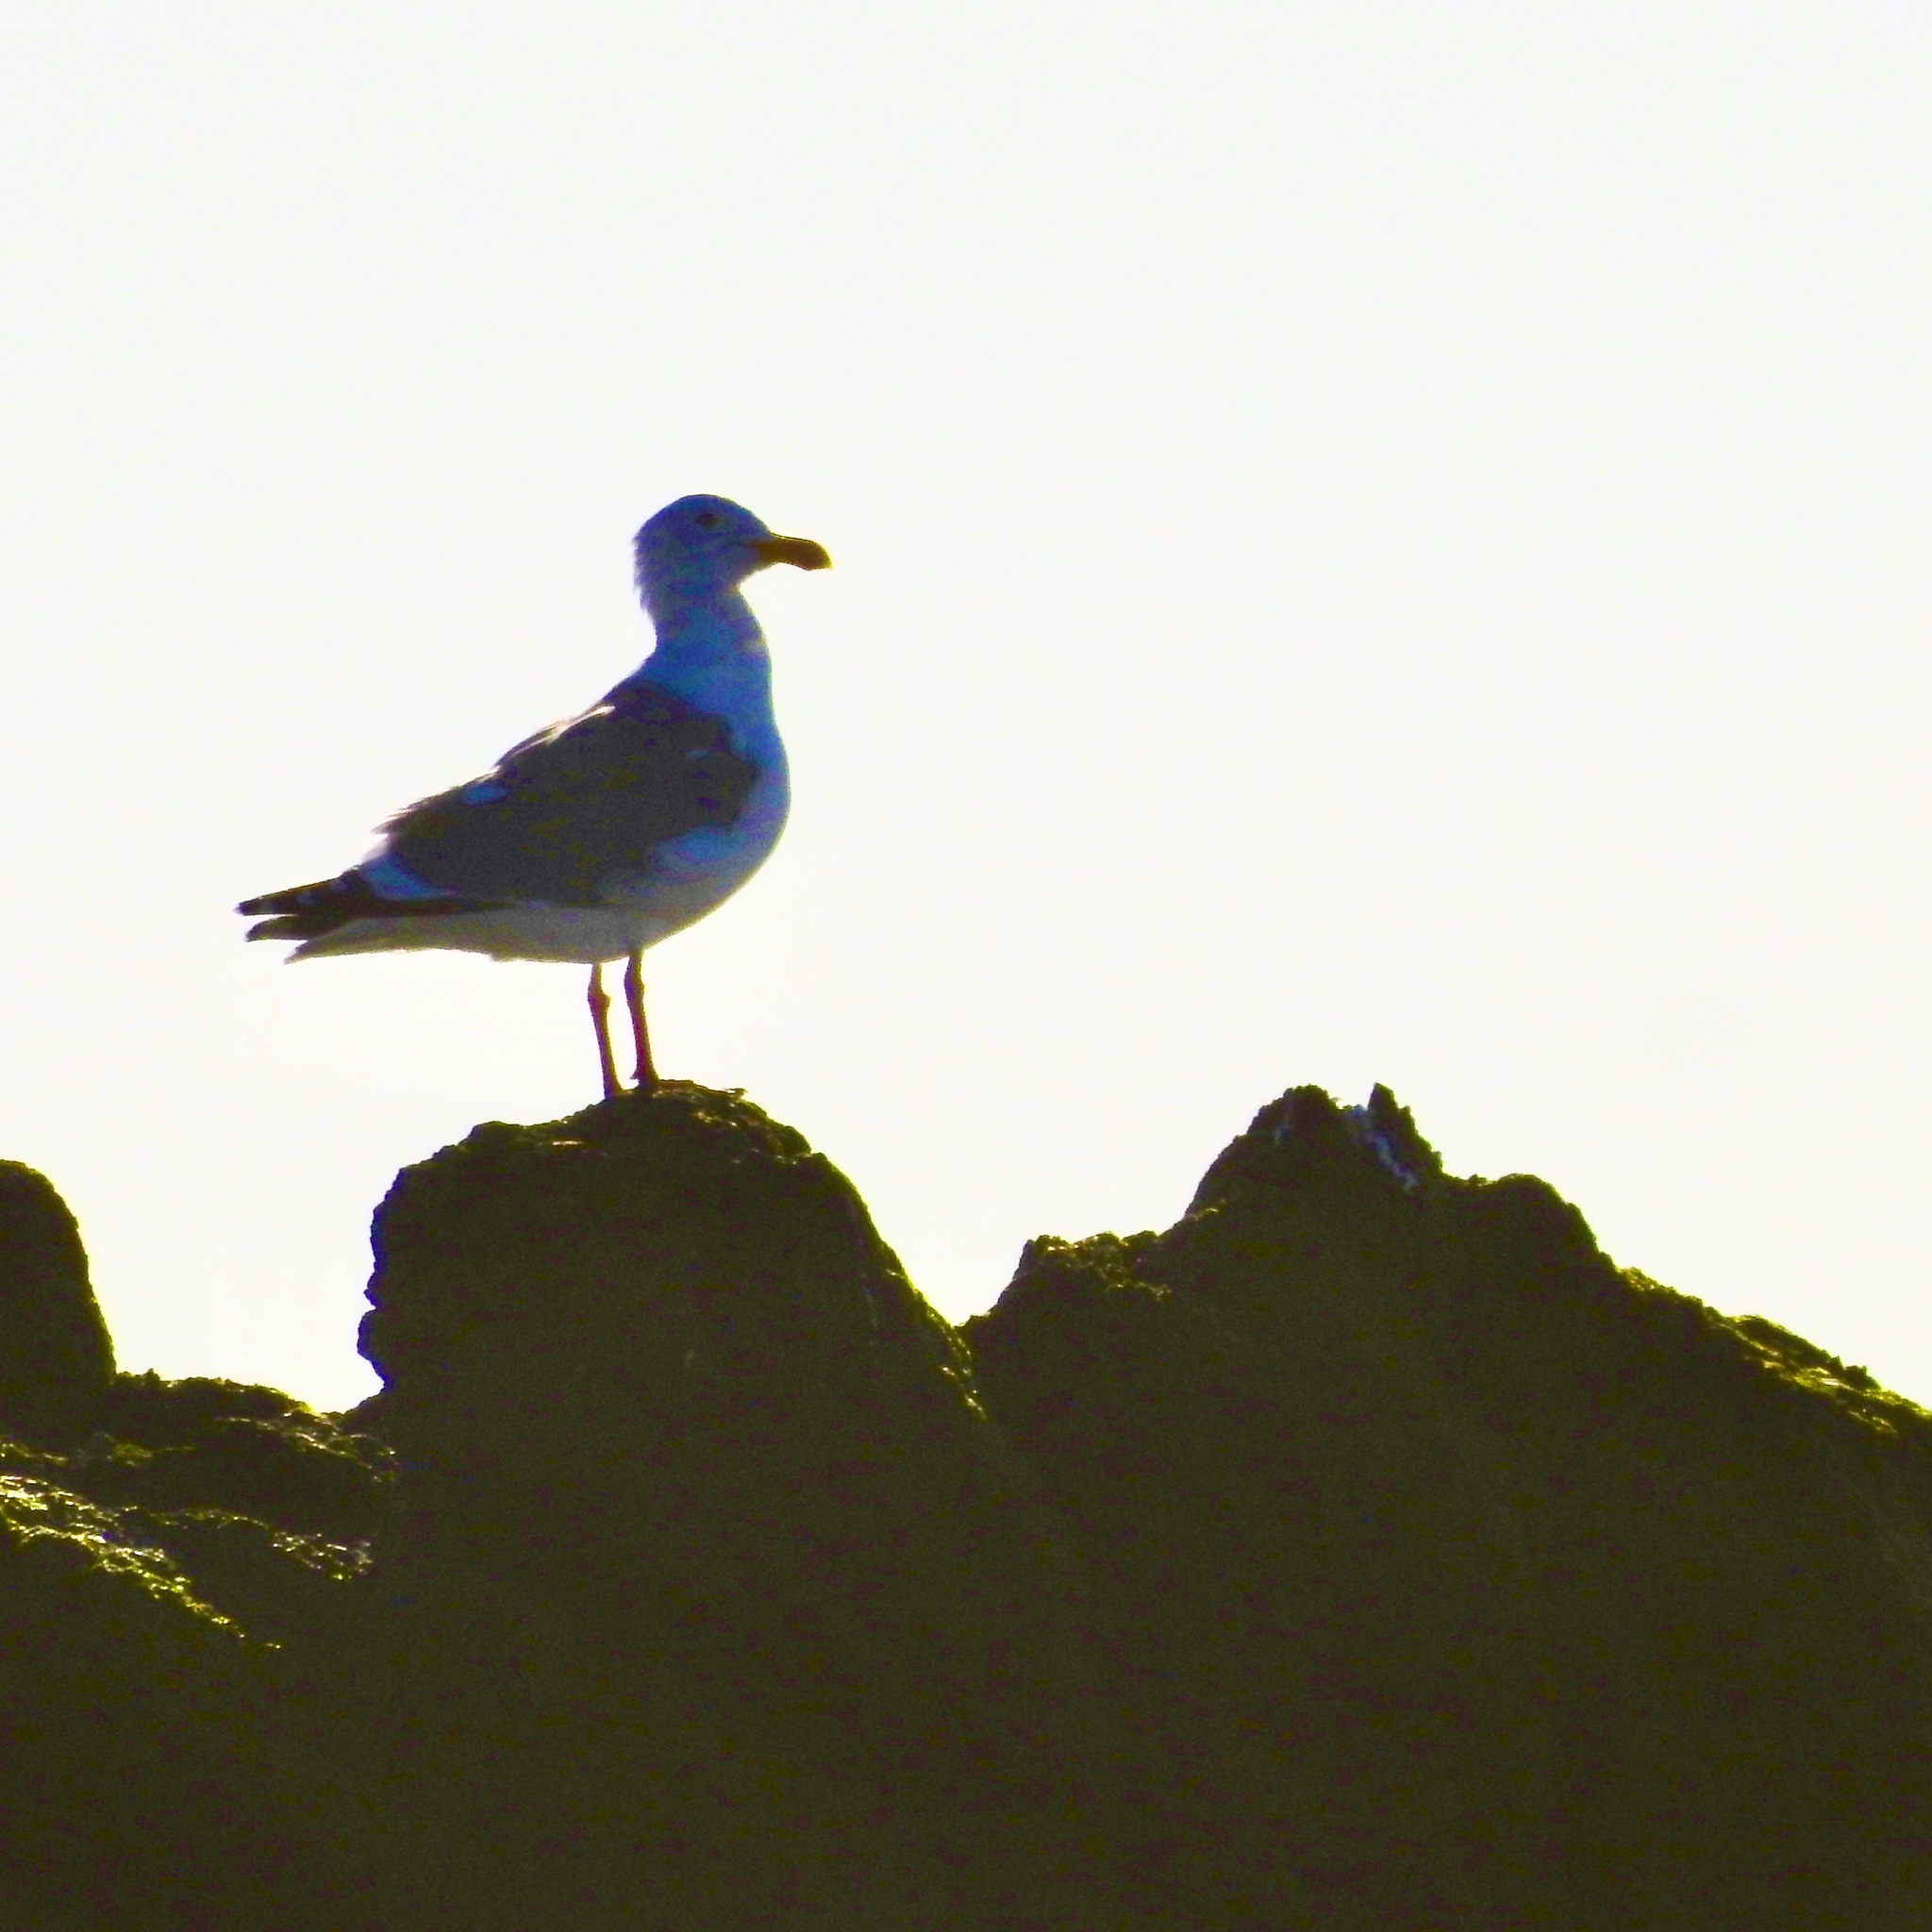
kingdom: Animalia
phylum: Chordata
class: Aves
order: Charadriiformes
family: Laridae
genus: Larus
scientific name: Larus
